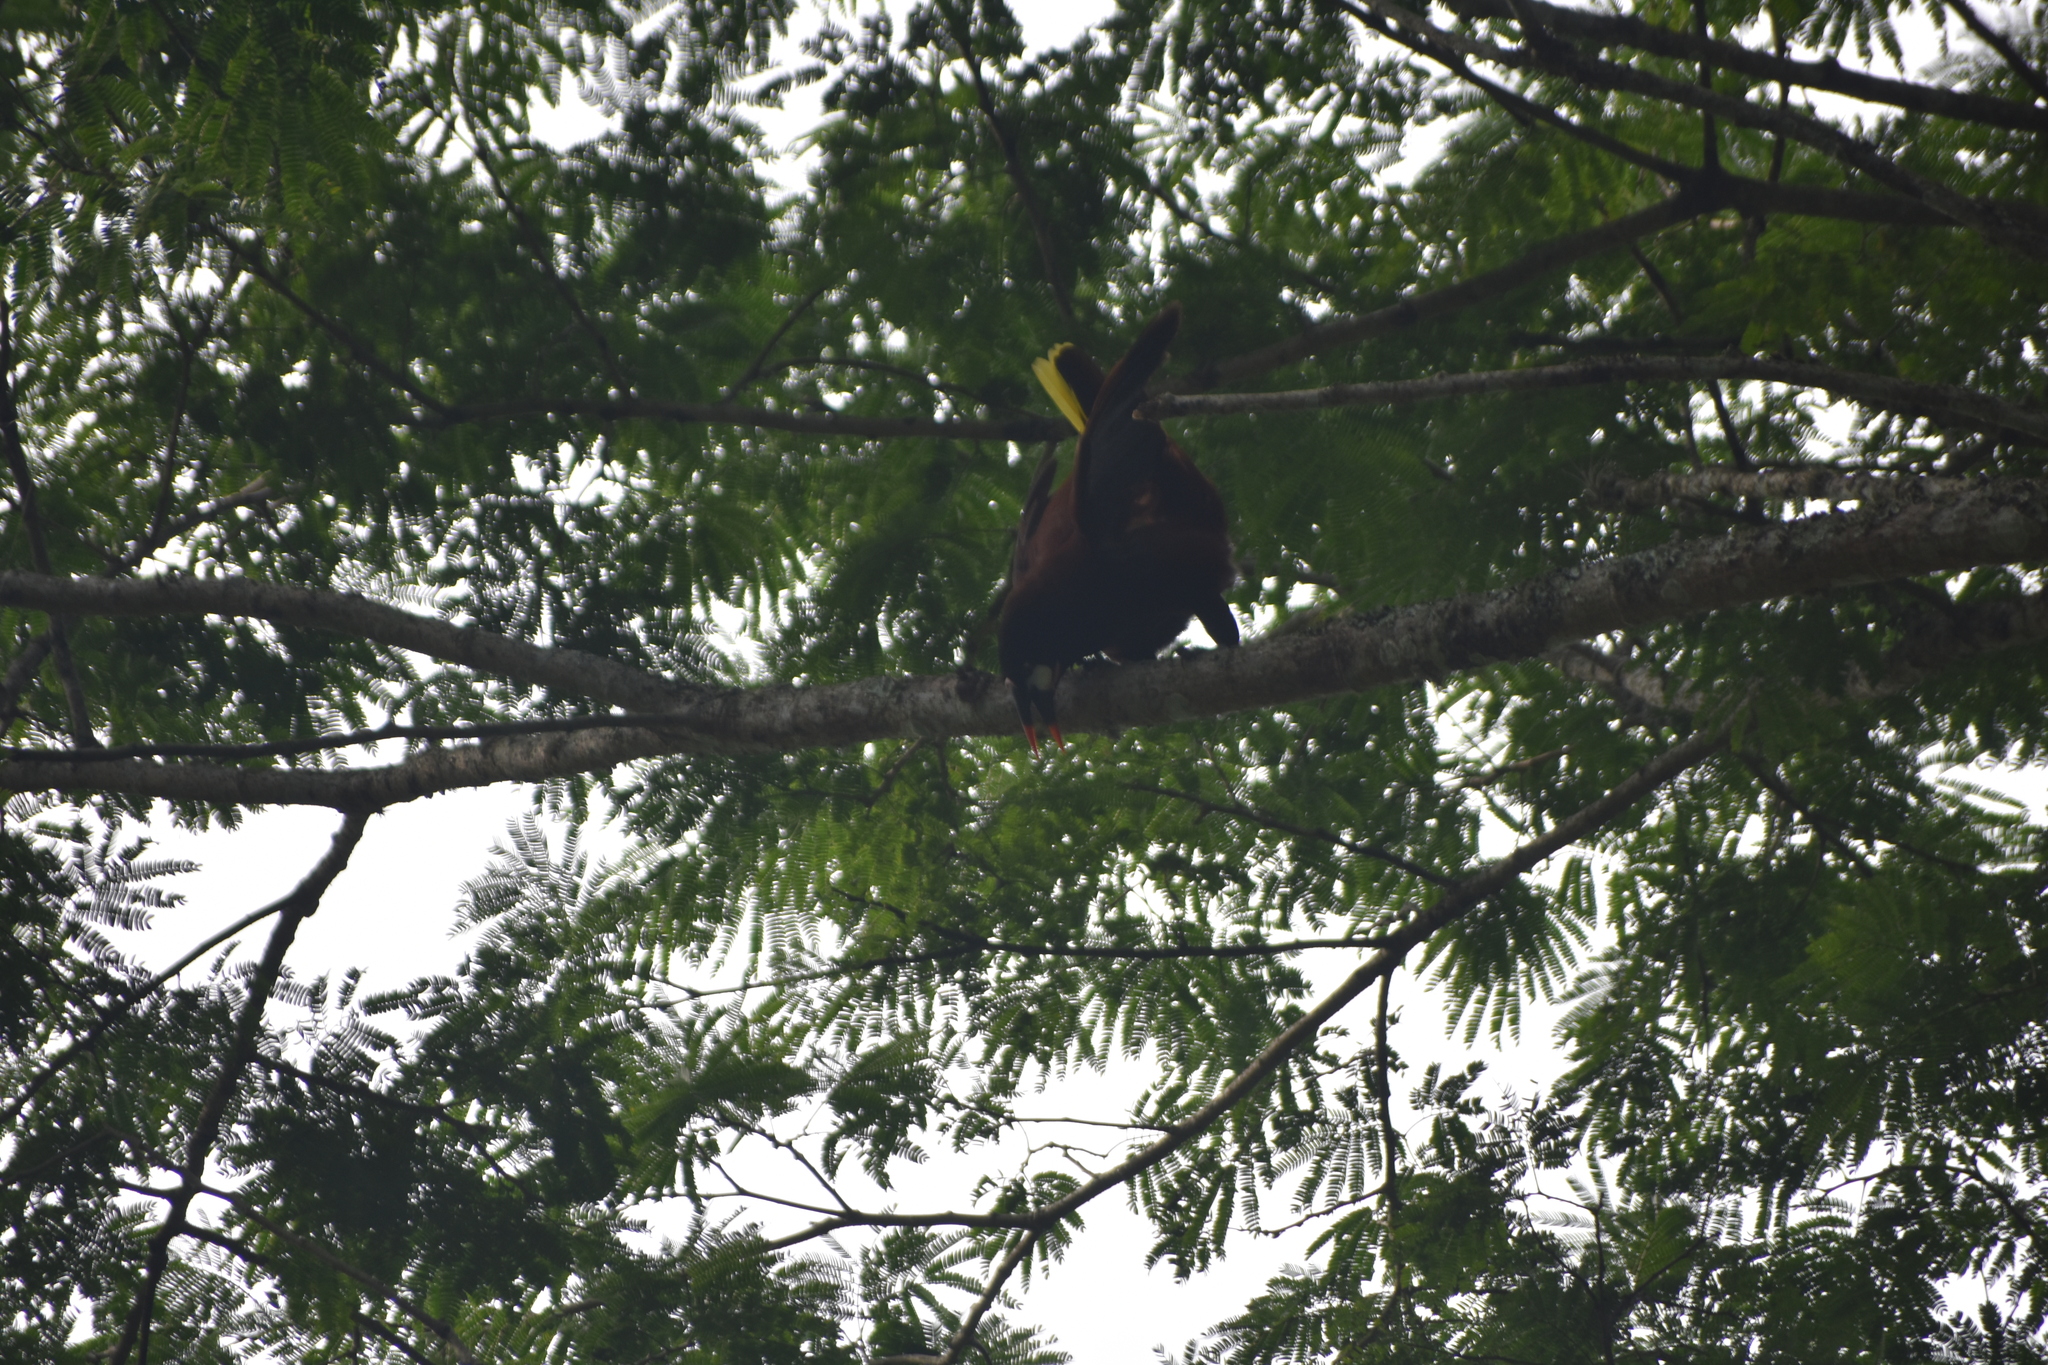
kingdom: Animalia
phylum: Chordata
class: Aves
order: Passeriformes
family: Icteridae
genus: Psarocolius
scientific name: Psarocolius montezuma
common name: Montezuma oropendola
